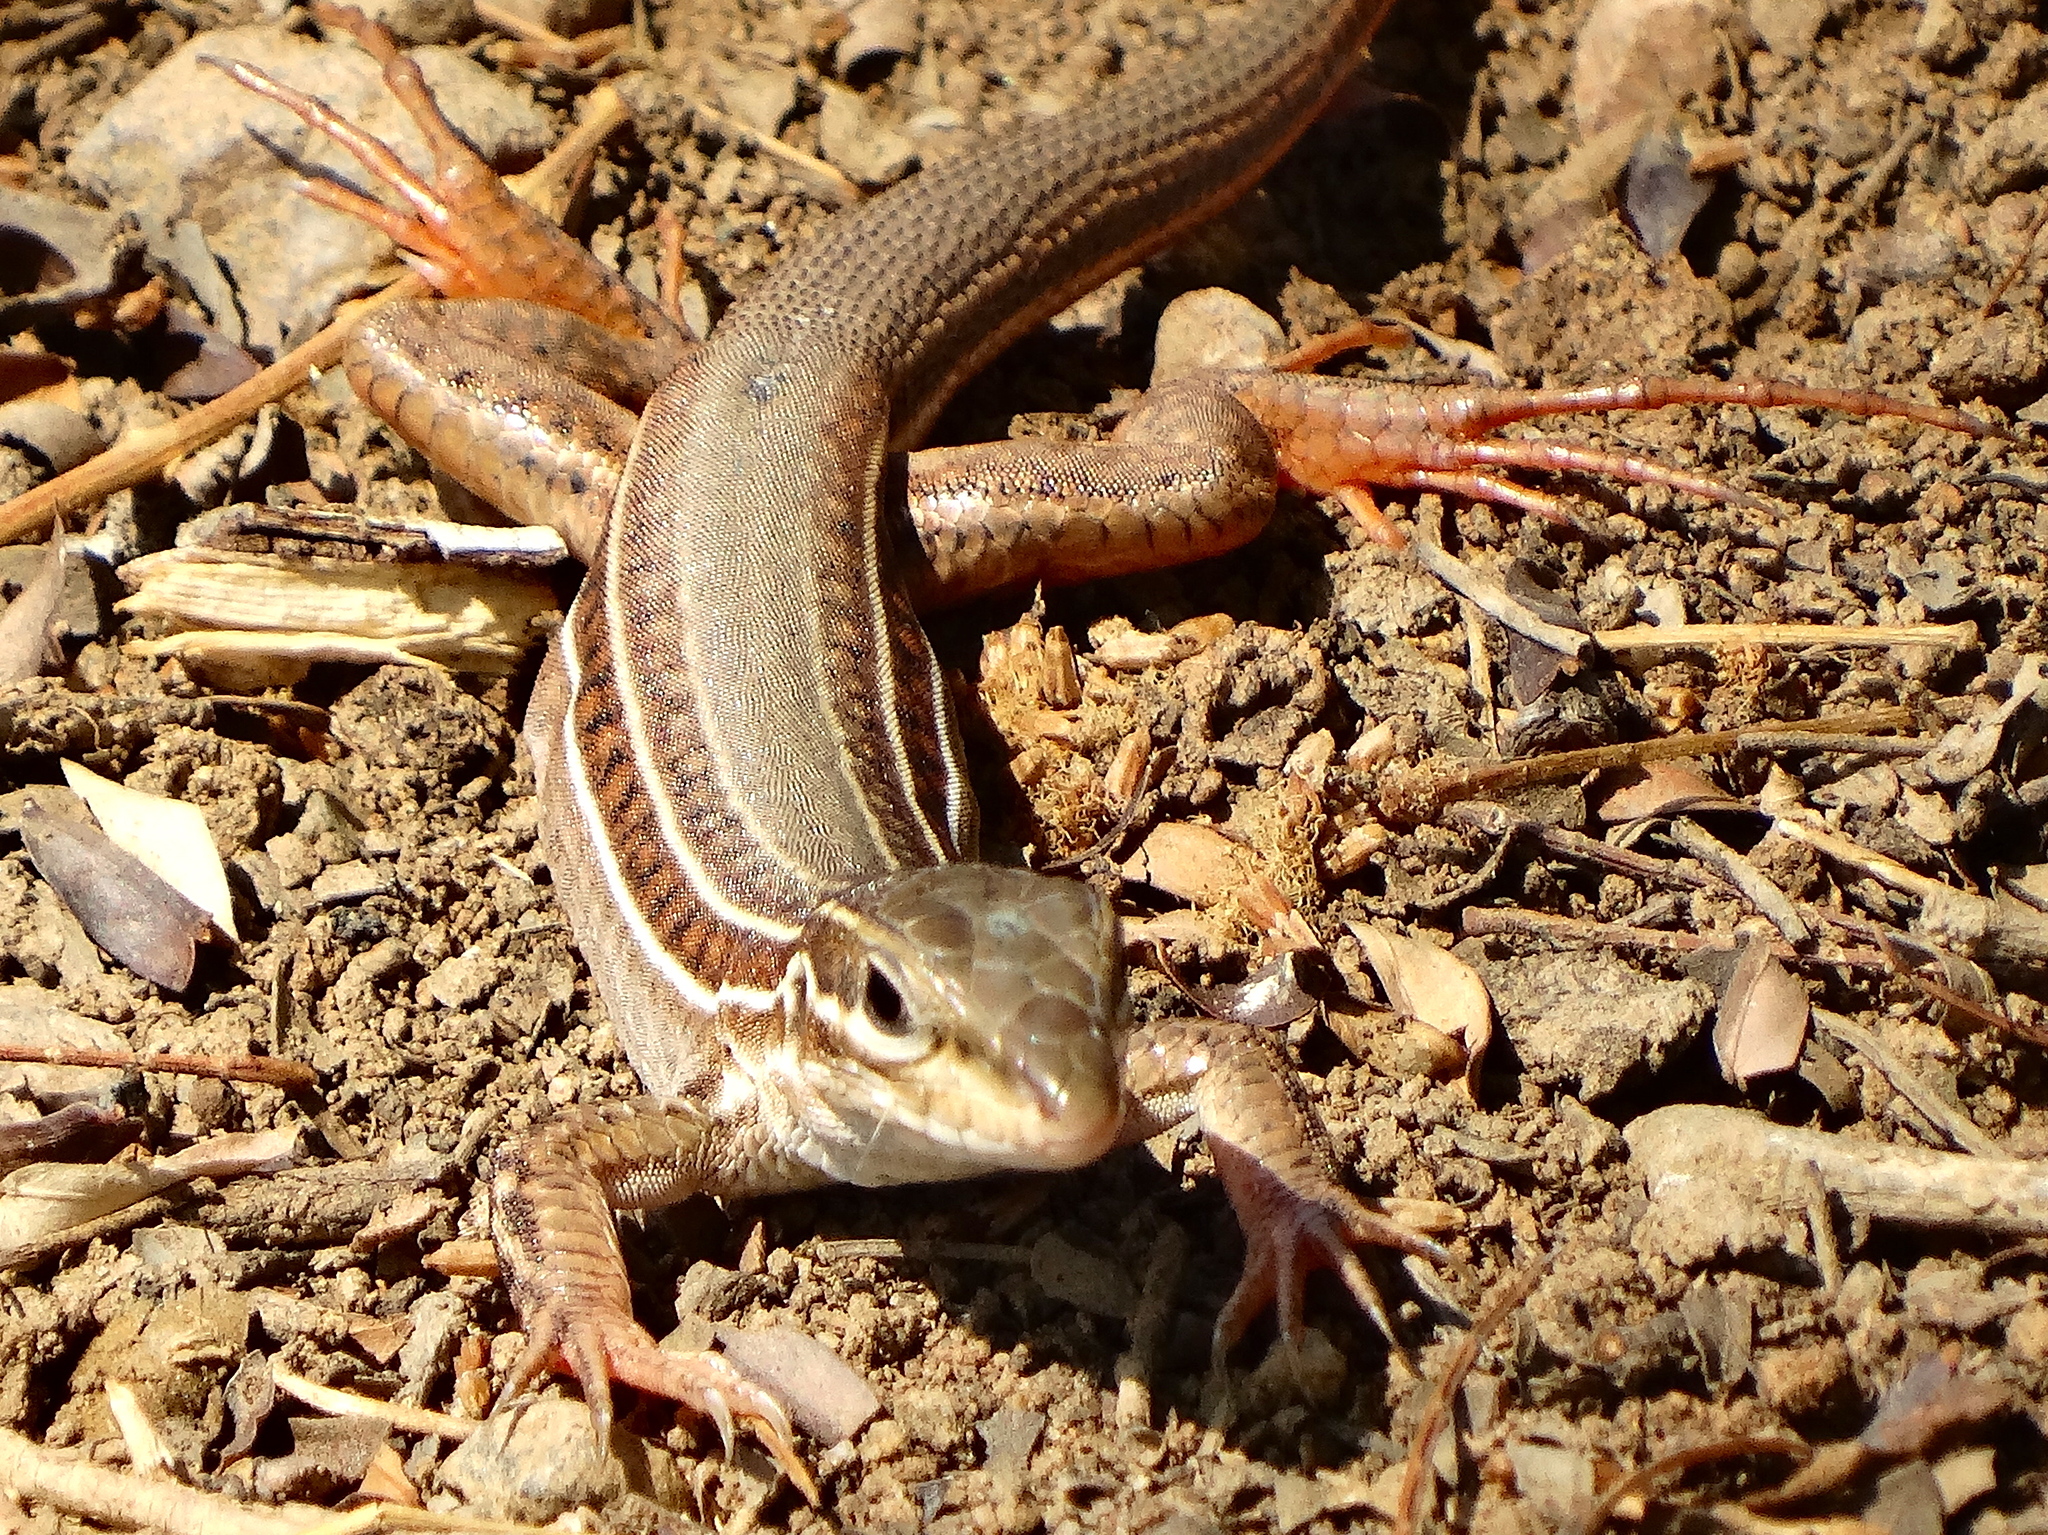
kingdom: Animalia
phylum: Chordata
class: Squamata
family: Teiidae
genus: Aspidoscelis
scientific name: Aspidoscelis costatus
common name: Western mexico whiptail
